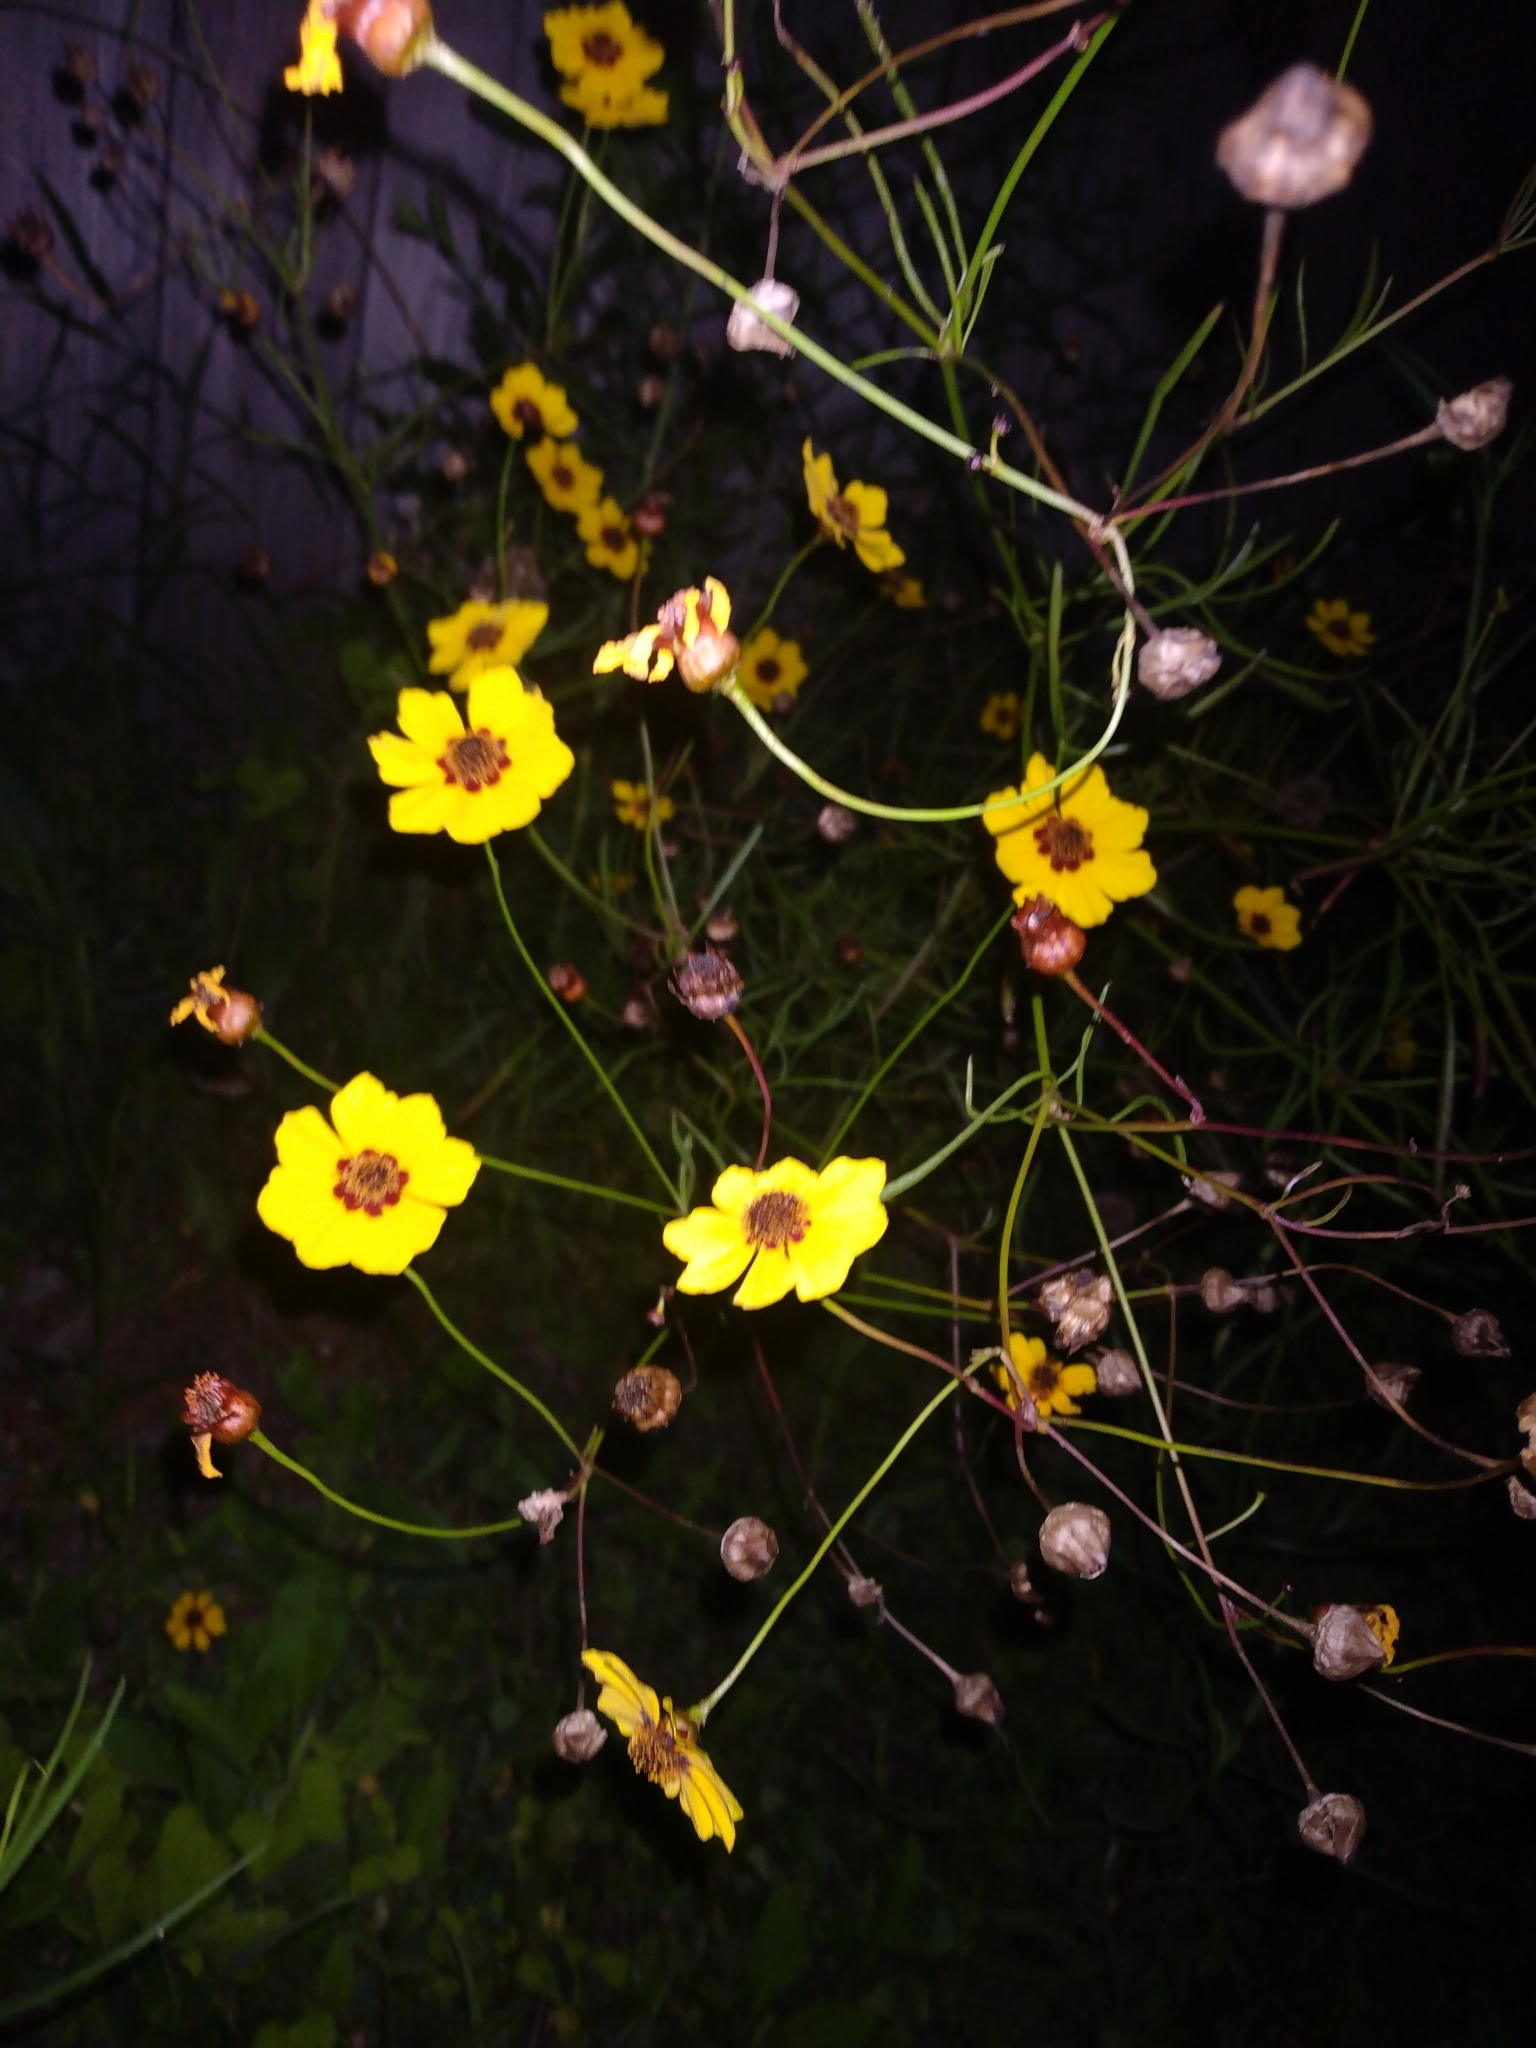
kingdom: Plantae
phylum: Tracheophyta
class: Magnoliopsida
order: Asterales
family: Asteraceae
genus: Coreopsis
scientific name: Coreopsis tinctoria
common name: Garden tickseed
